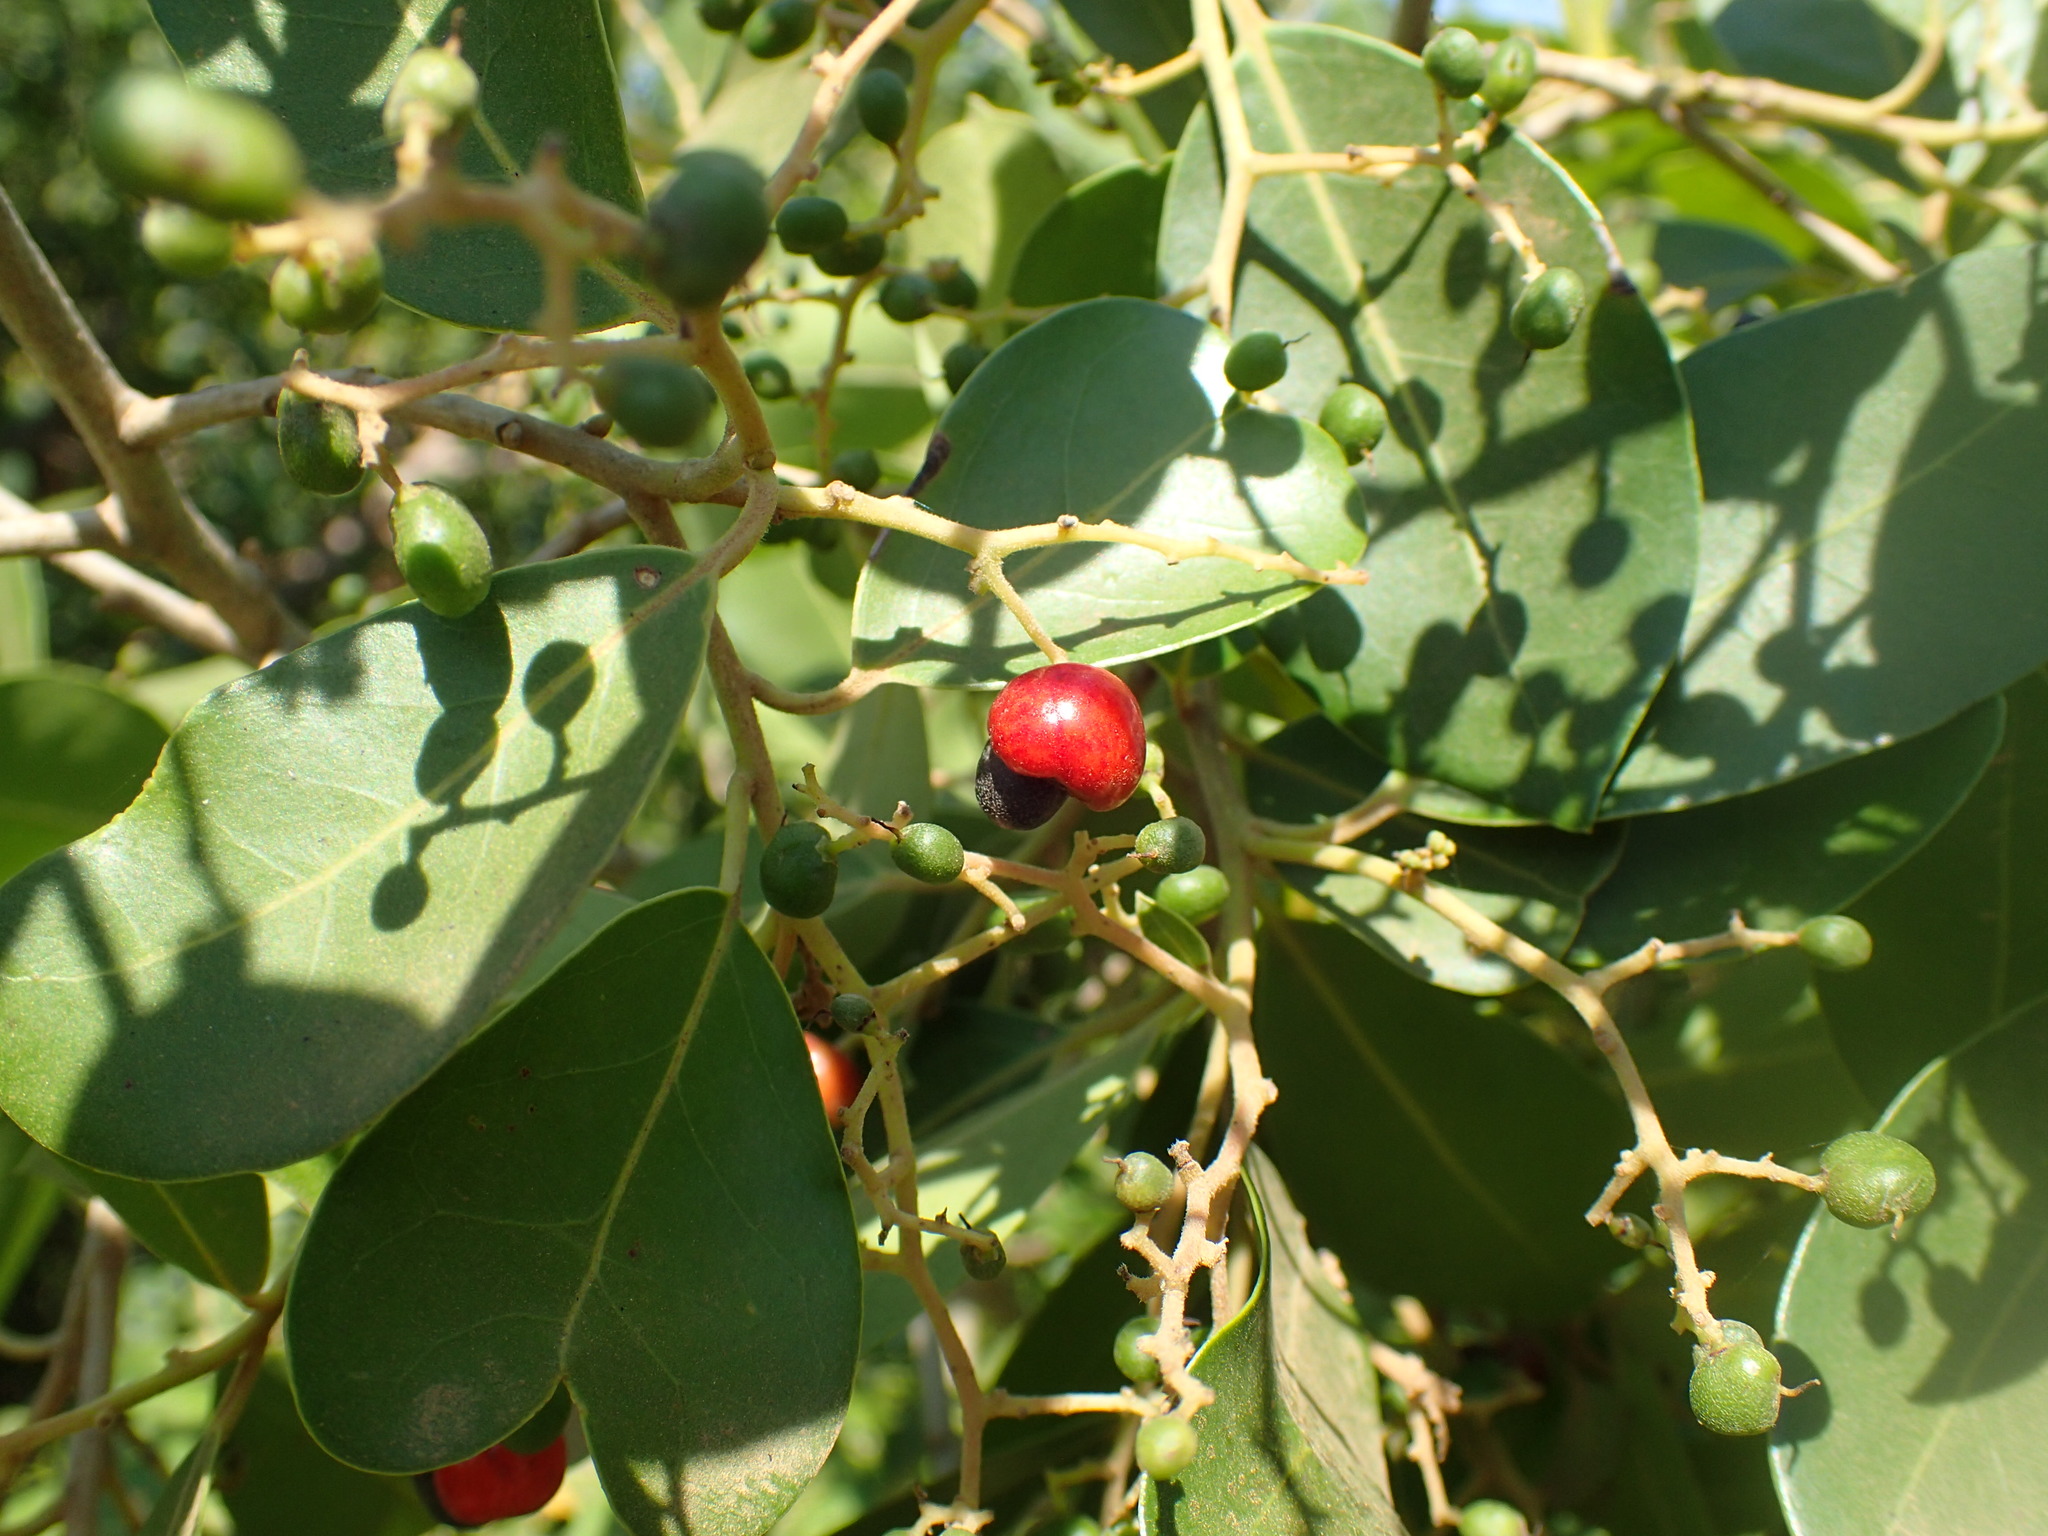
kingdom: Plantae
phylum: Tracheophyta
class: Magnoliopsida
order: Metteniusales
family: Metteniusaceae
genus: Apodytes
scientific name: Apodytes dimidiata
